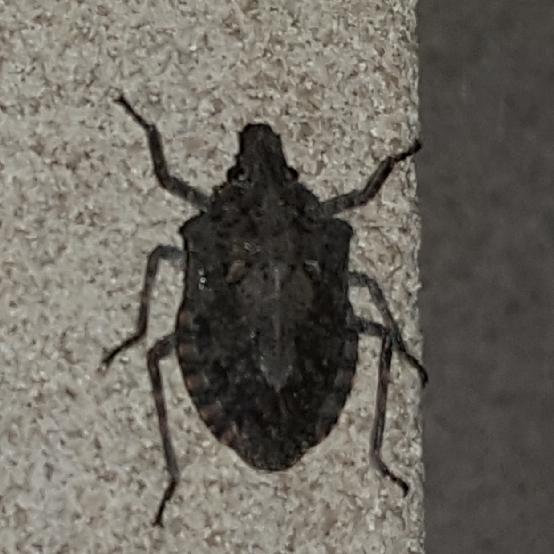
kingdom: Animalia
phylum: Arthropoda
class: Insecta
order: Hemiptera
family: Pentatomidae
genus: Brochymena
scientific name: Brochymena
